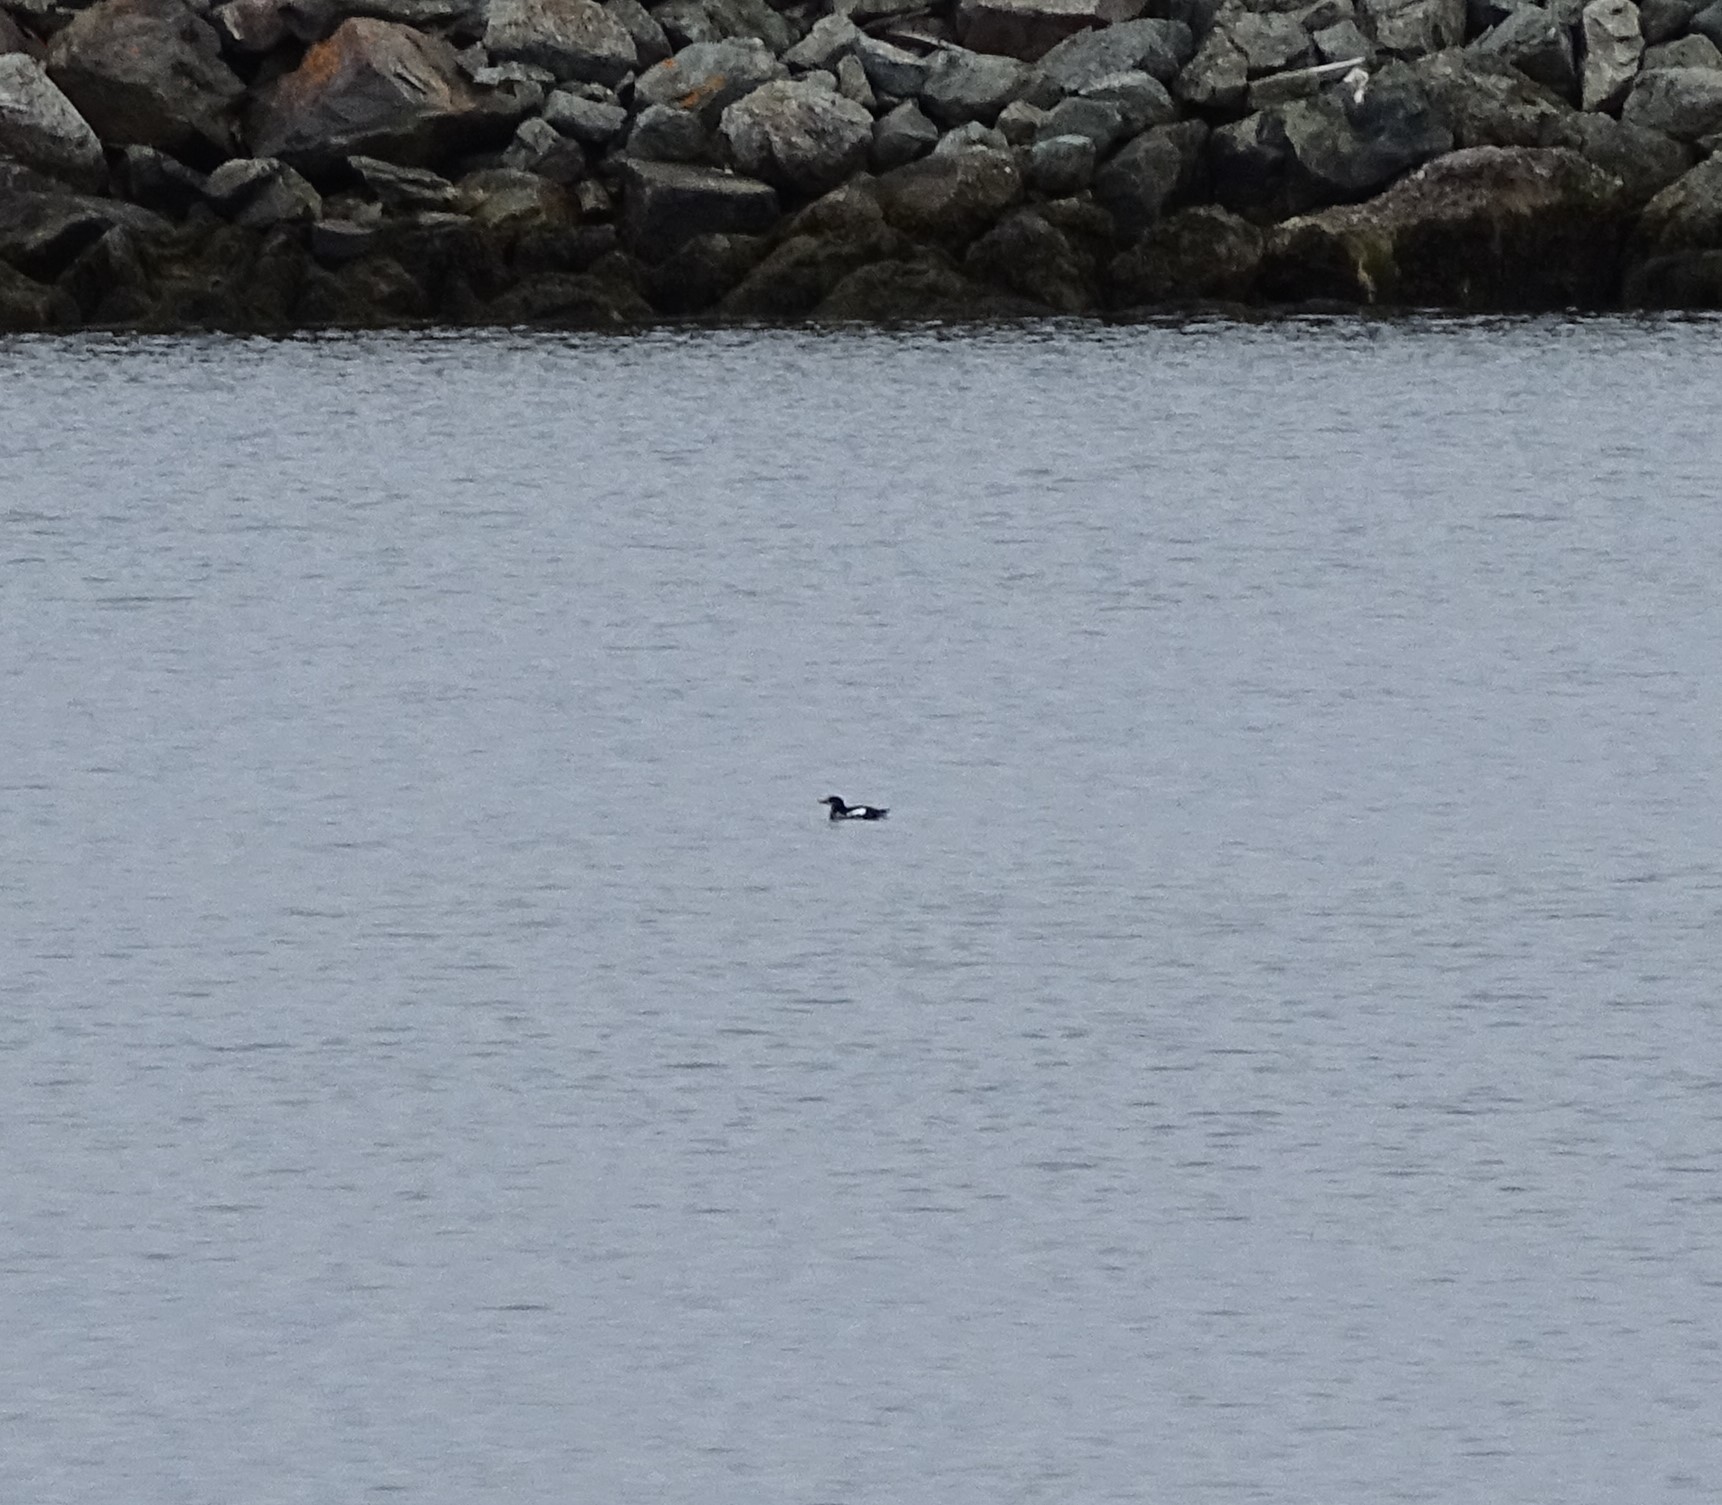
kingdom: Animalia
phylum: Chordata
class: Aves
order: Charadriiformes
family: Alcidae
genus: Cepphus
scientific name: Cepphus grylle
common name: Black guillemot
